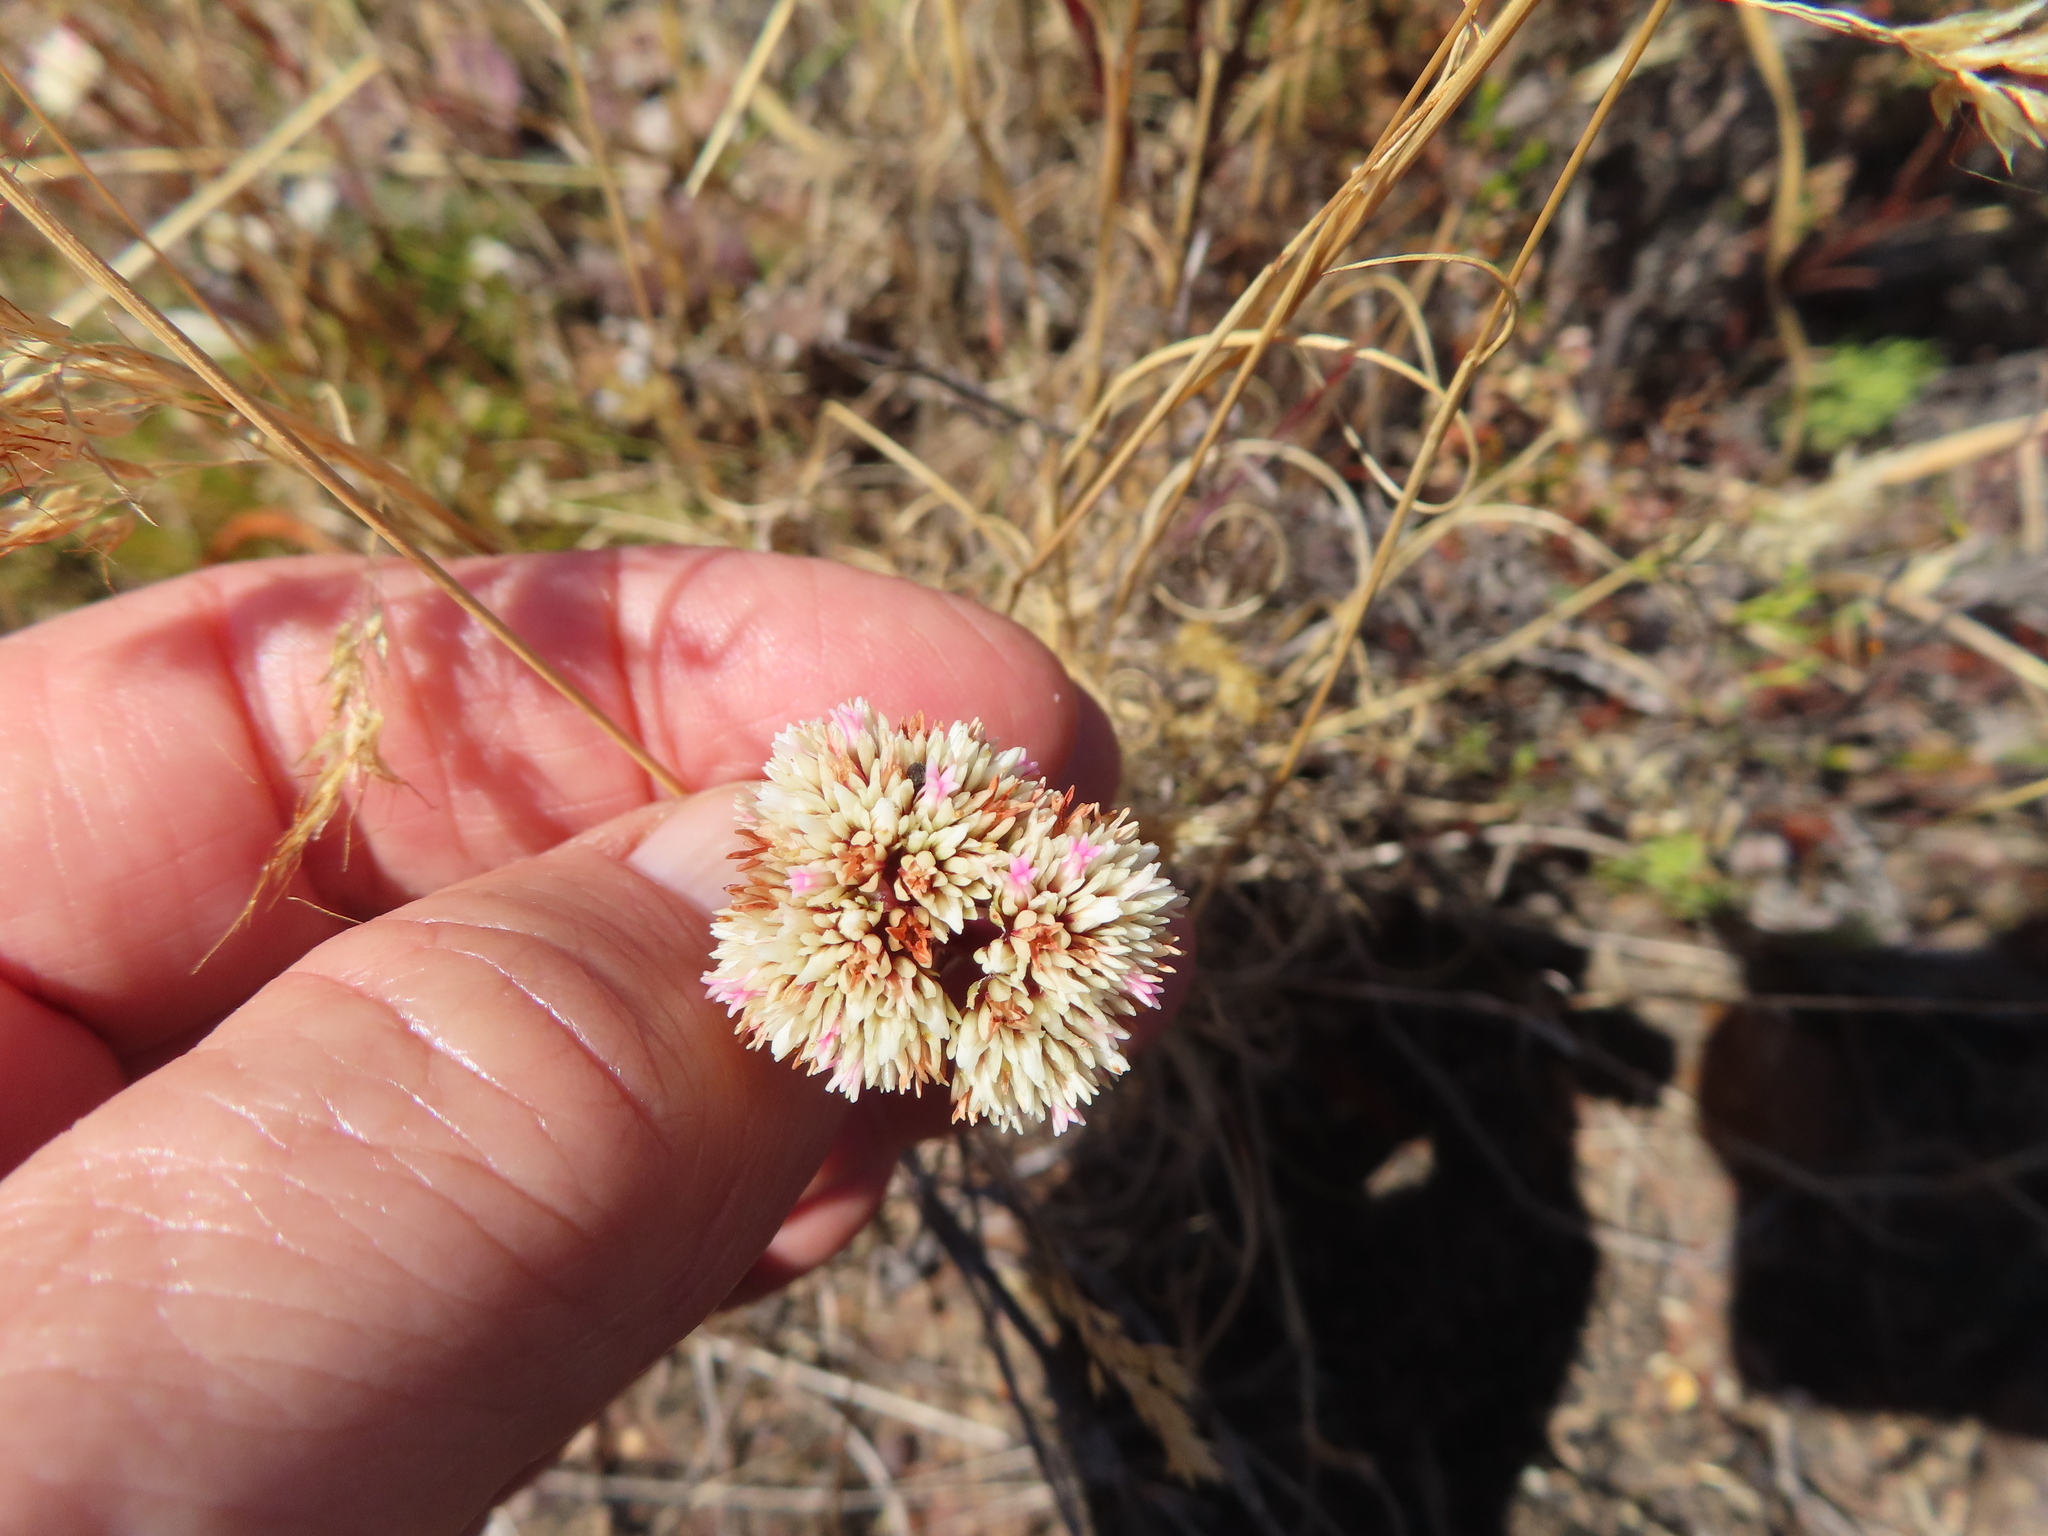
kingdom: Plantae
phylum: Tracheophyta
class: Magnoliopsida
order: Saxifragales
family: Crassulaceae
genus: Crassula
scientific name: Crassula subulata
